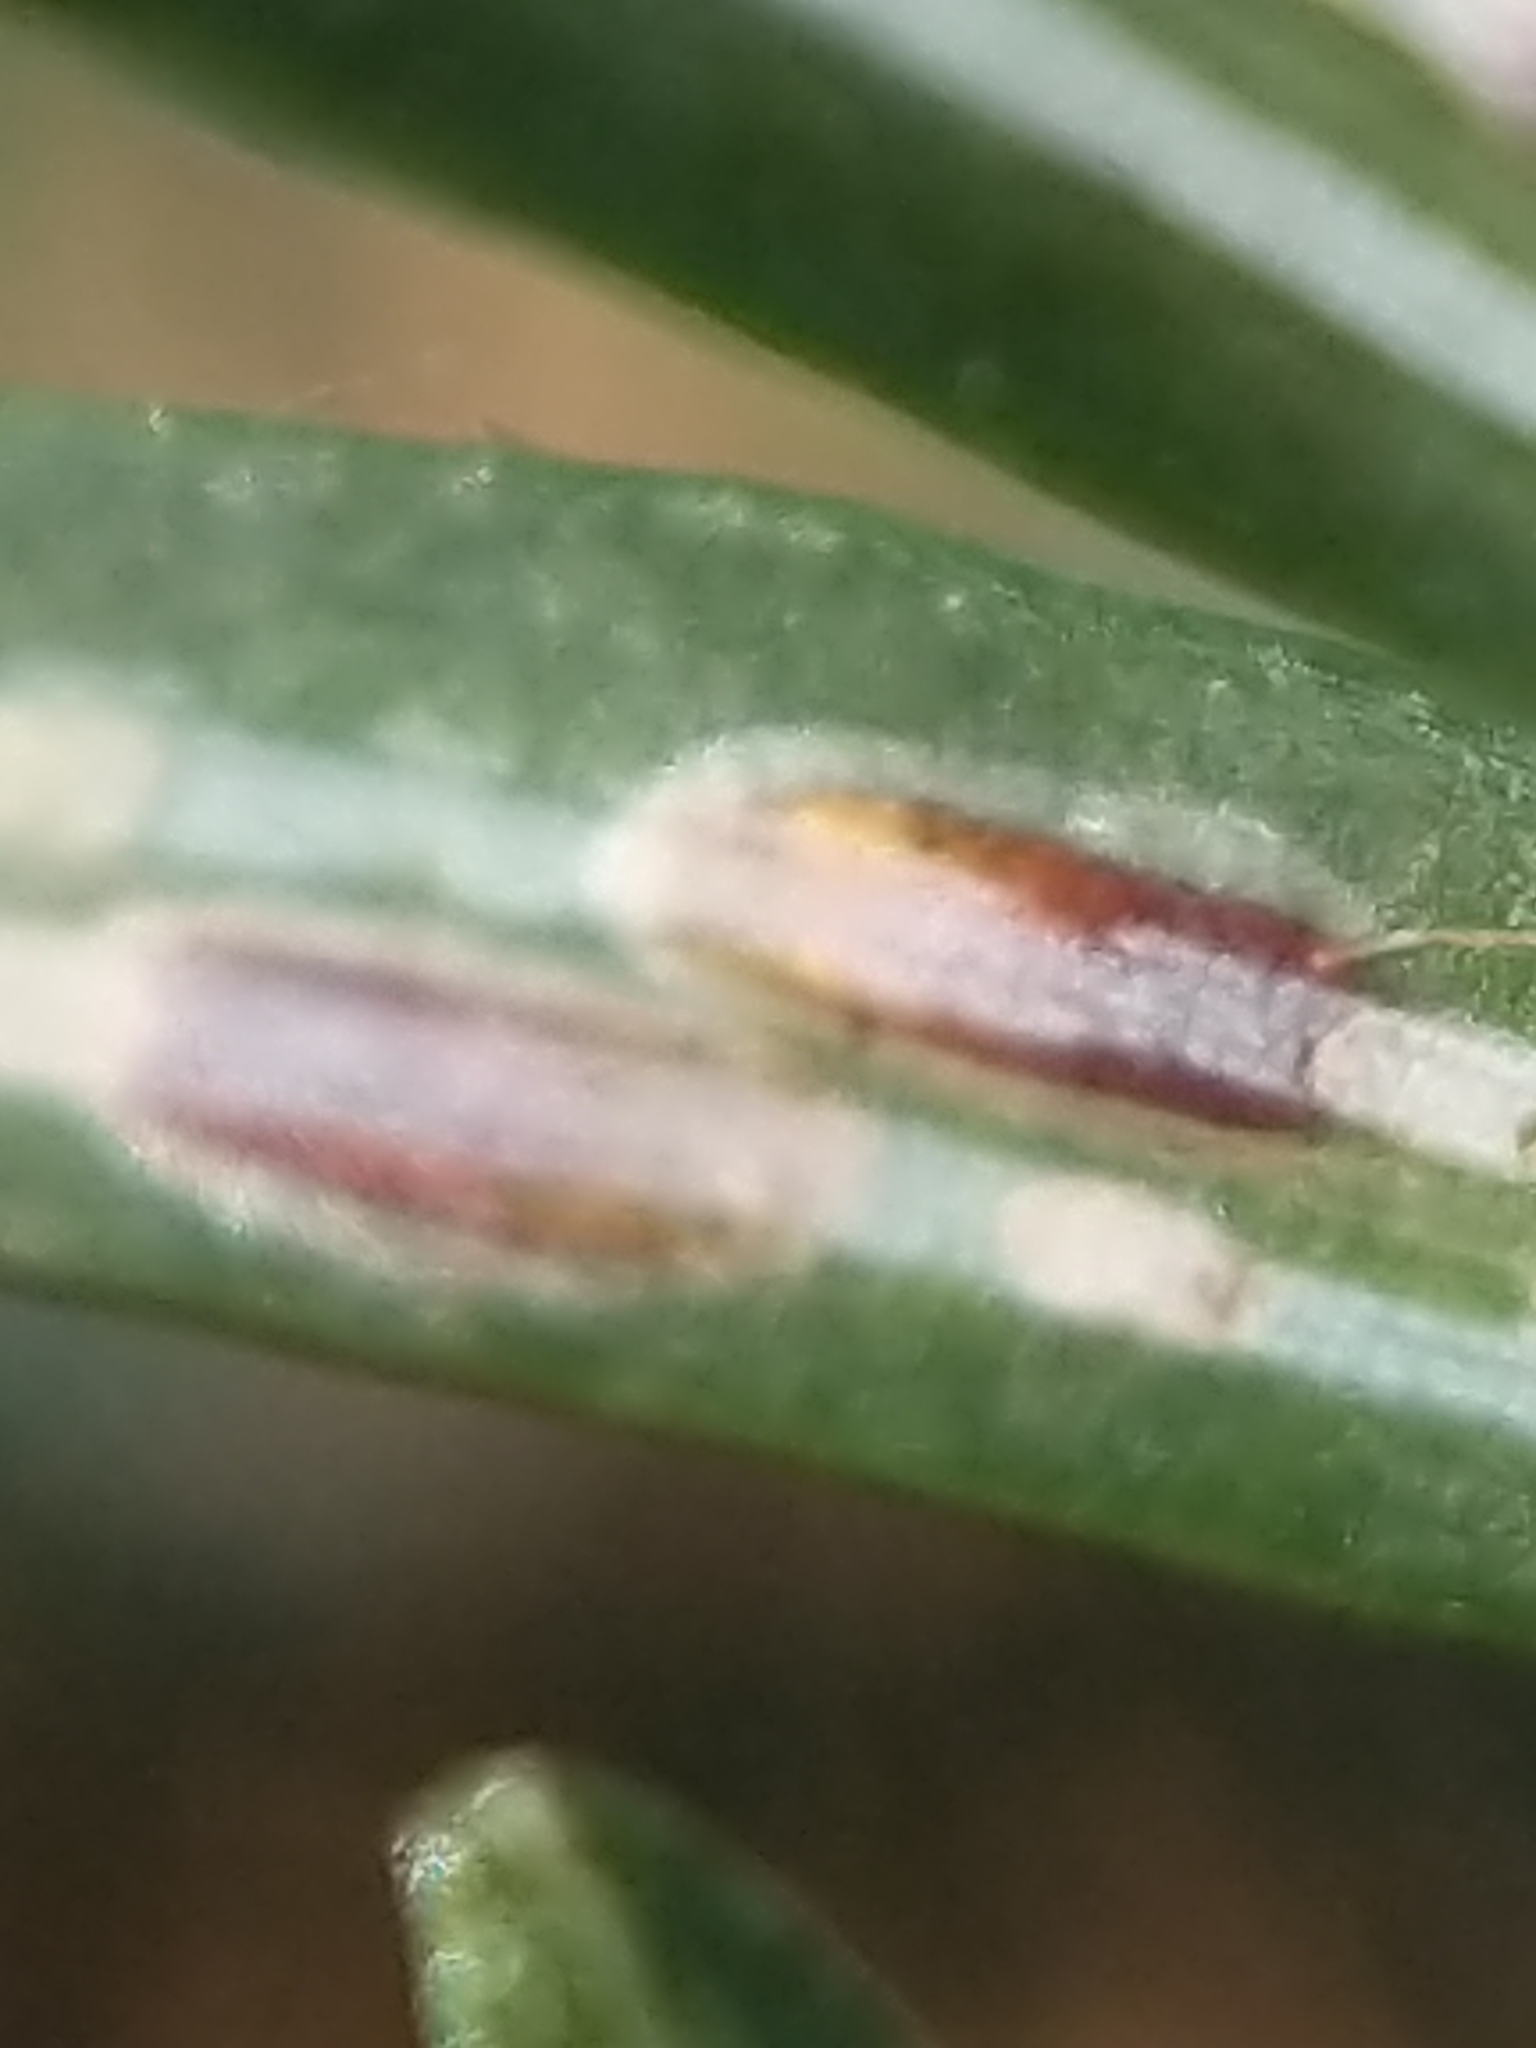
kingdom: Animalia
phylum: Arthropoda
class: Insecta
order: Hemiptera
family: Diaspididae
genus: Fiorinia
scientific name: Fiorinia externa
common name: Elongate hemlock scale
